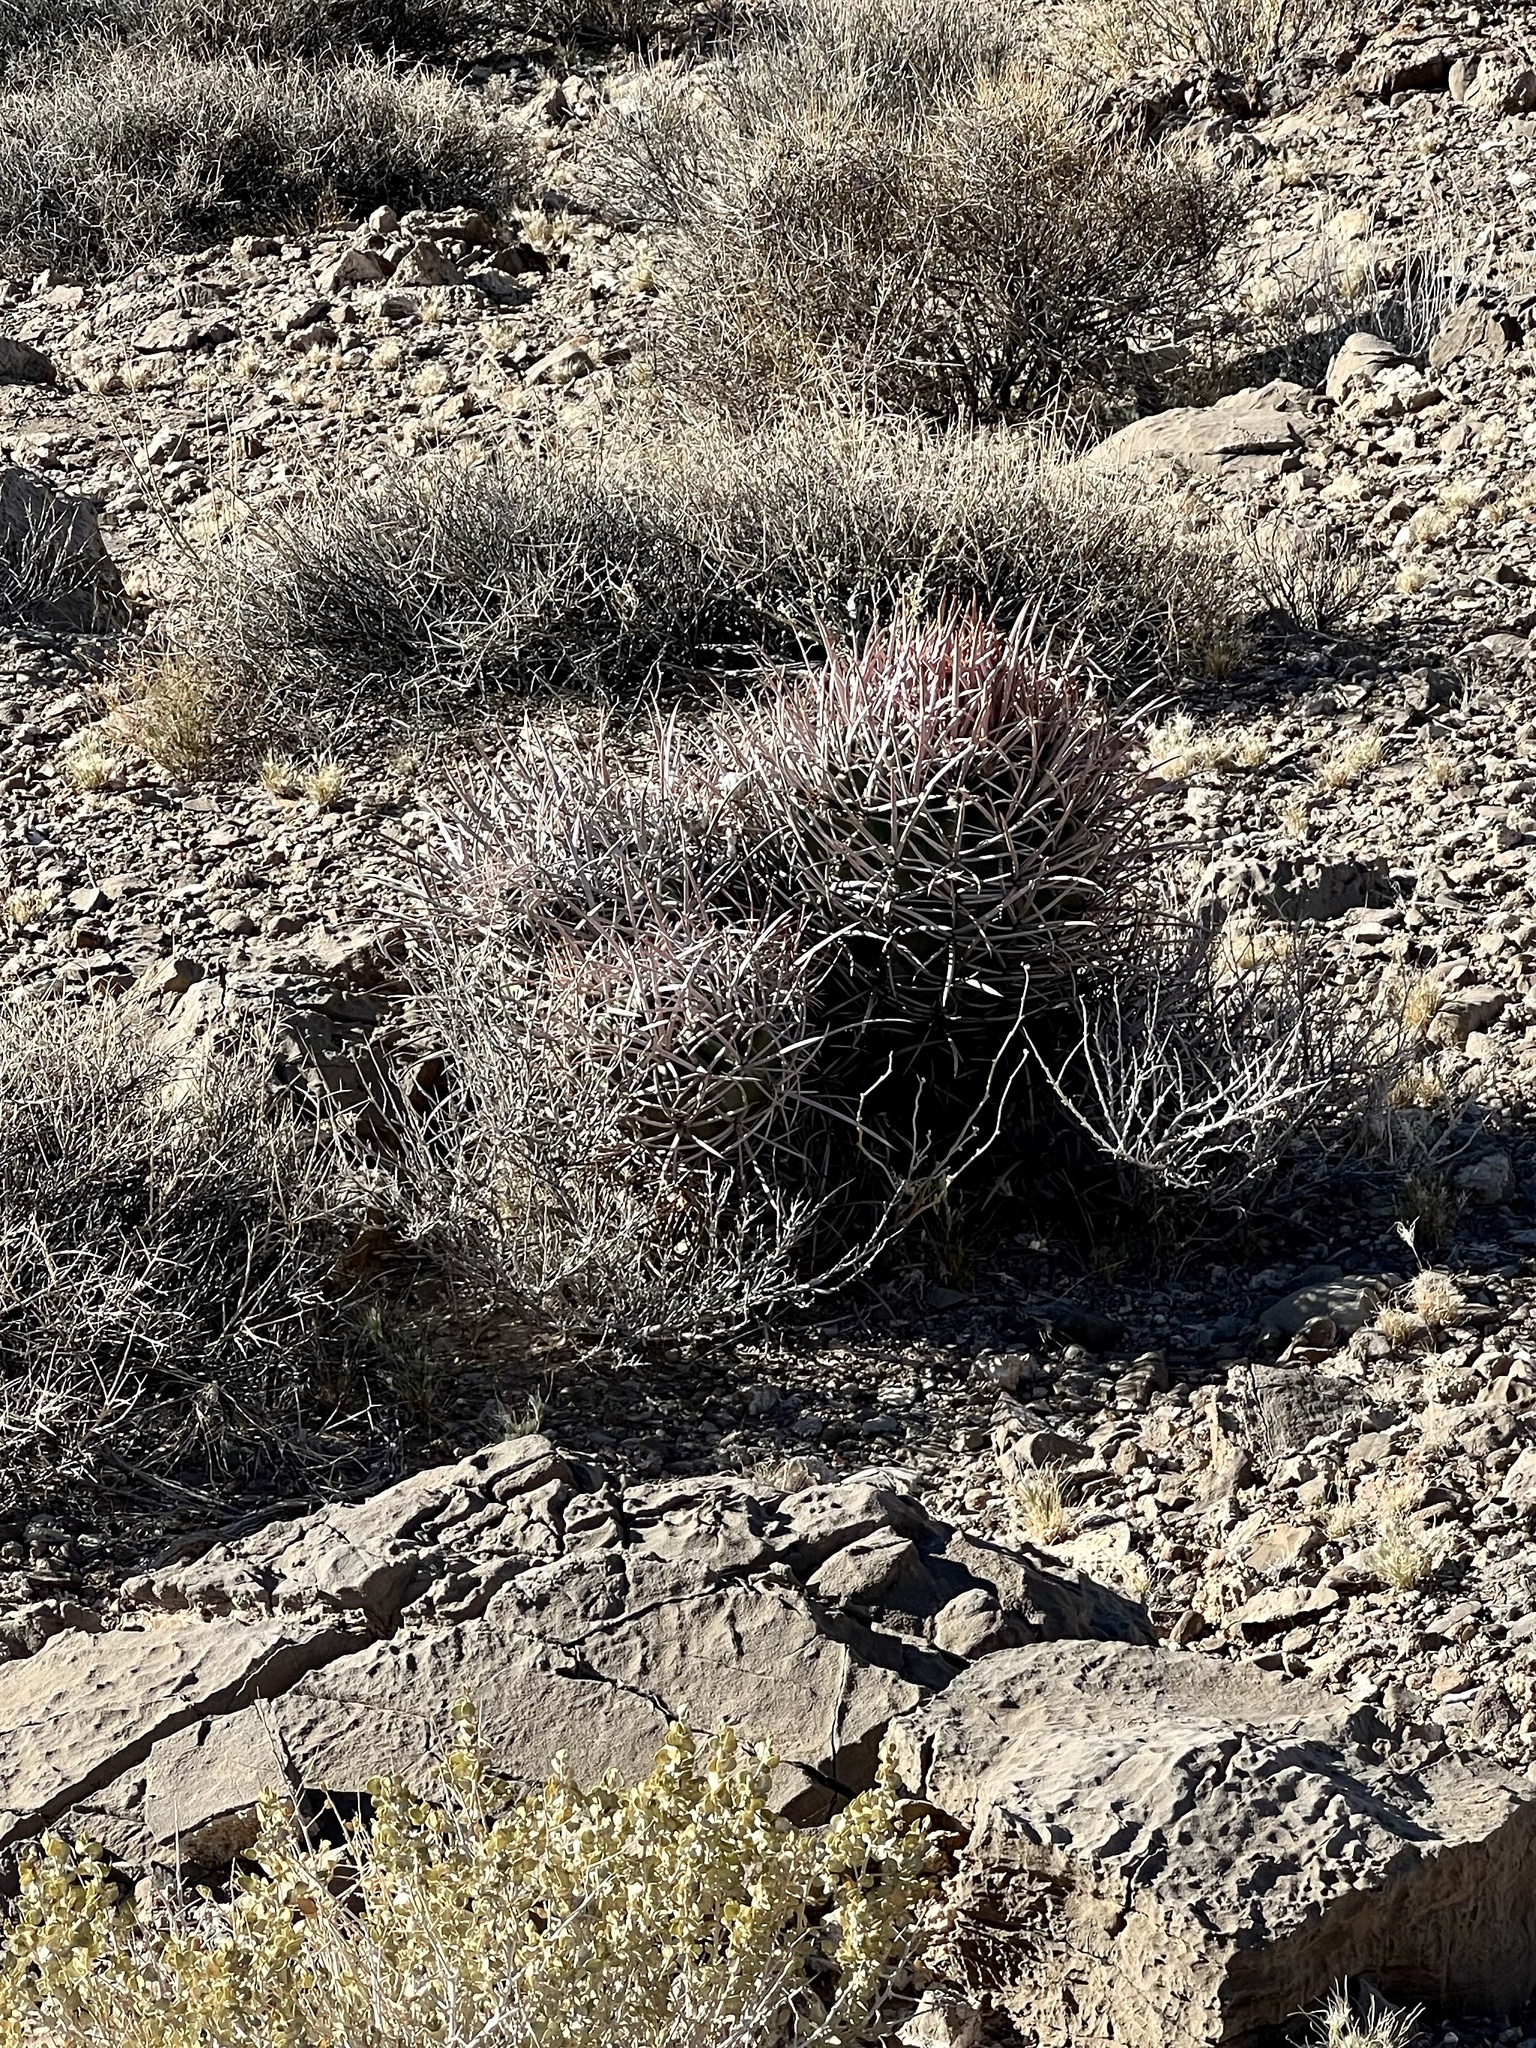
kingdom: Plantae
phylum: Tracheophyta
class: Magnoliopsida
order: Caryophyllales
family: Cactaceae
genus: Echinocactus
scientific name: Echinocactus polycephalus
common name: Cottontop cactus
